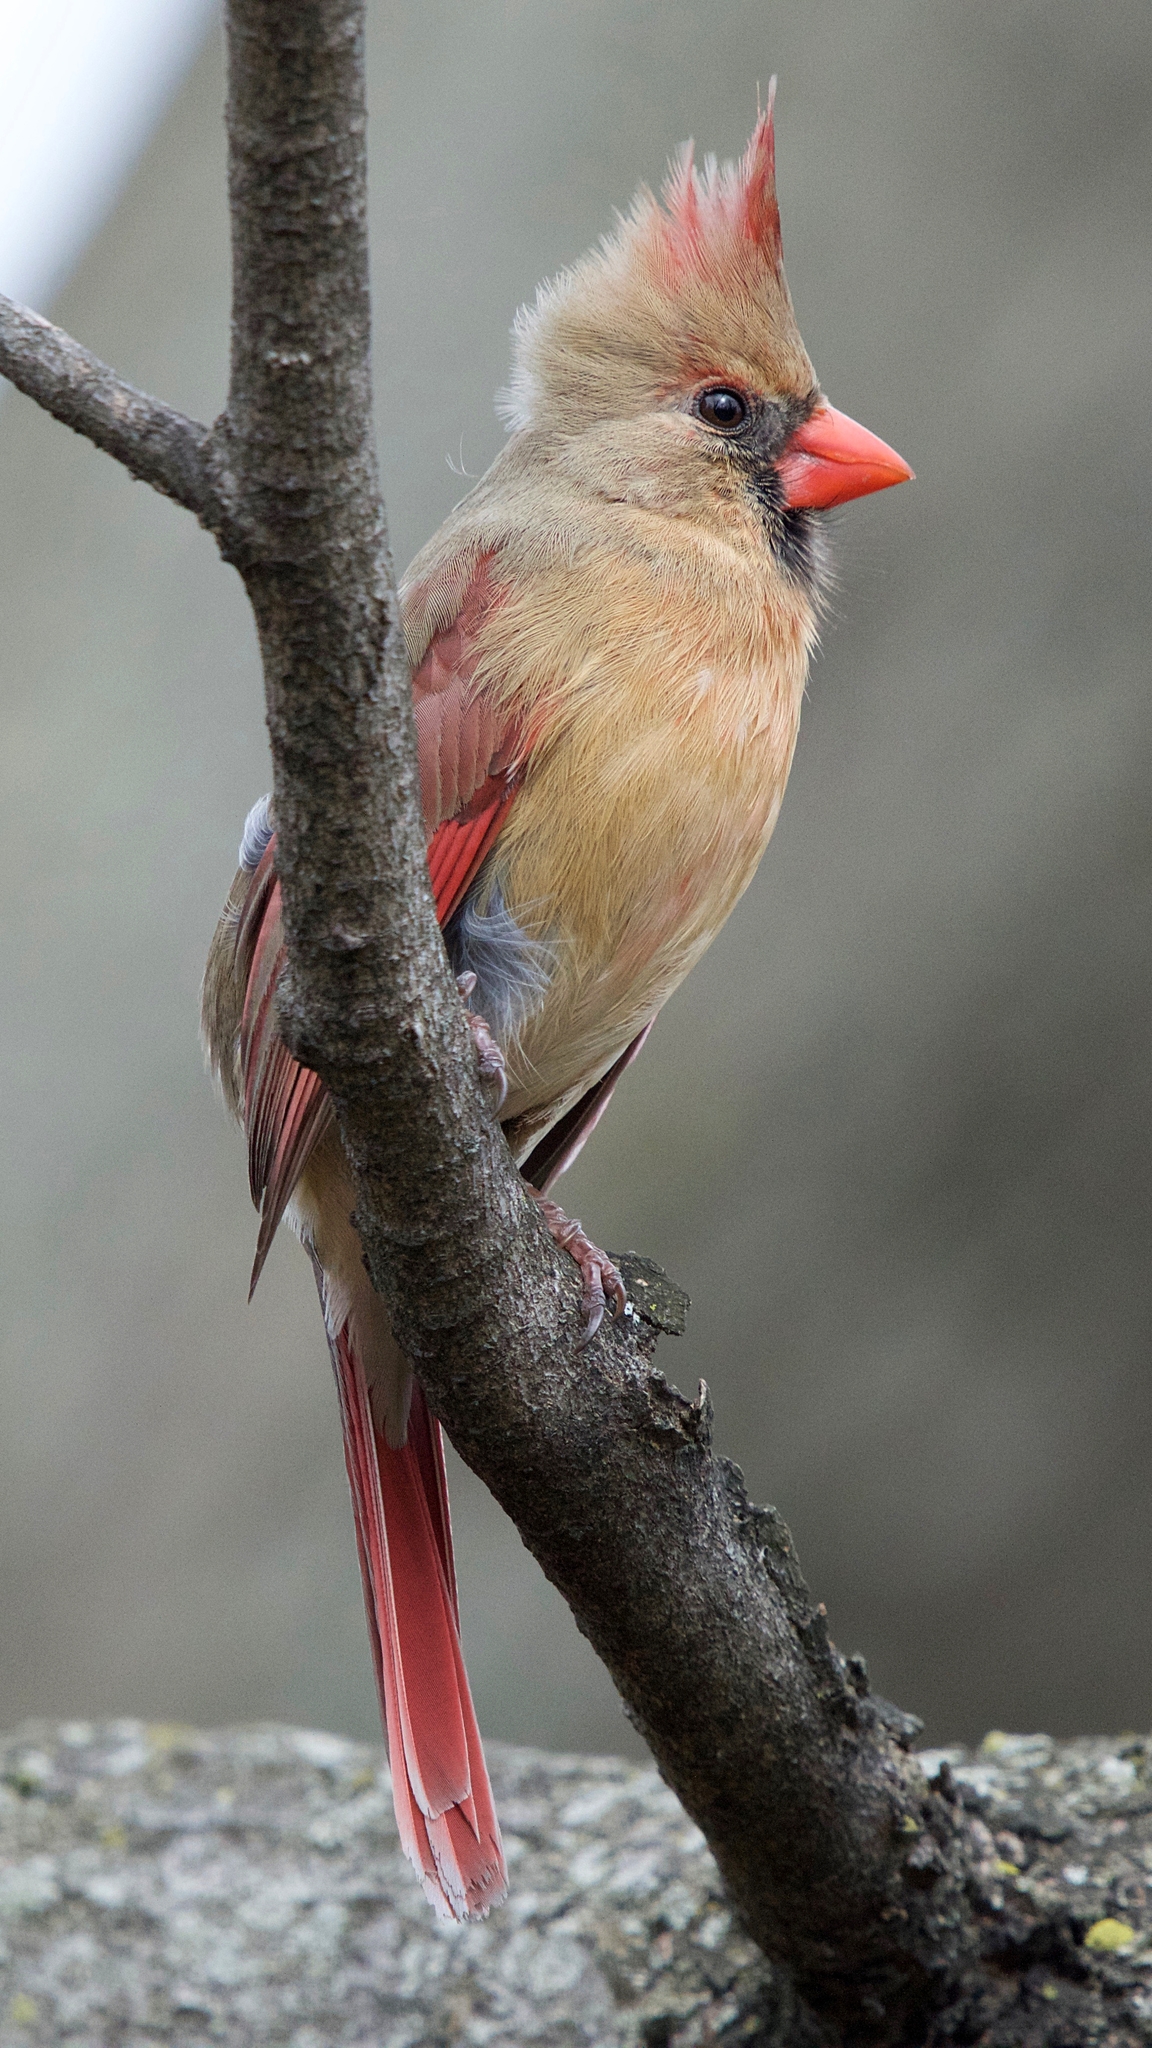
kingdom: Animalia
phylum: Chordata
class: Aves
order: Passeriformes
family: Cardinalidae
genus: Cardinalis
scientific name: Cardinalis cardinalis
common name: Northern cardinal
